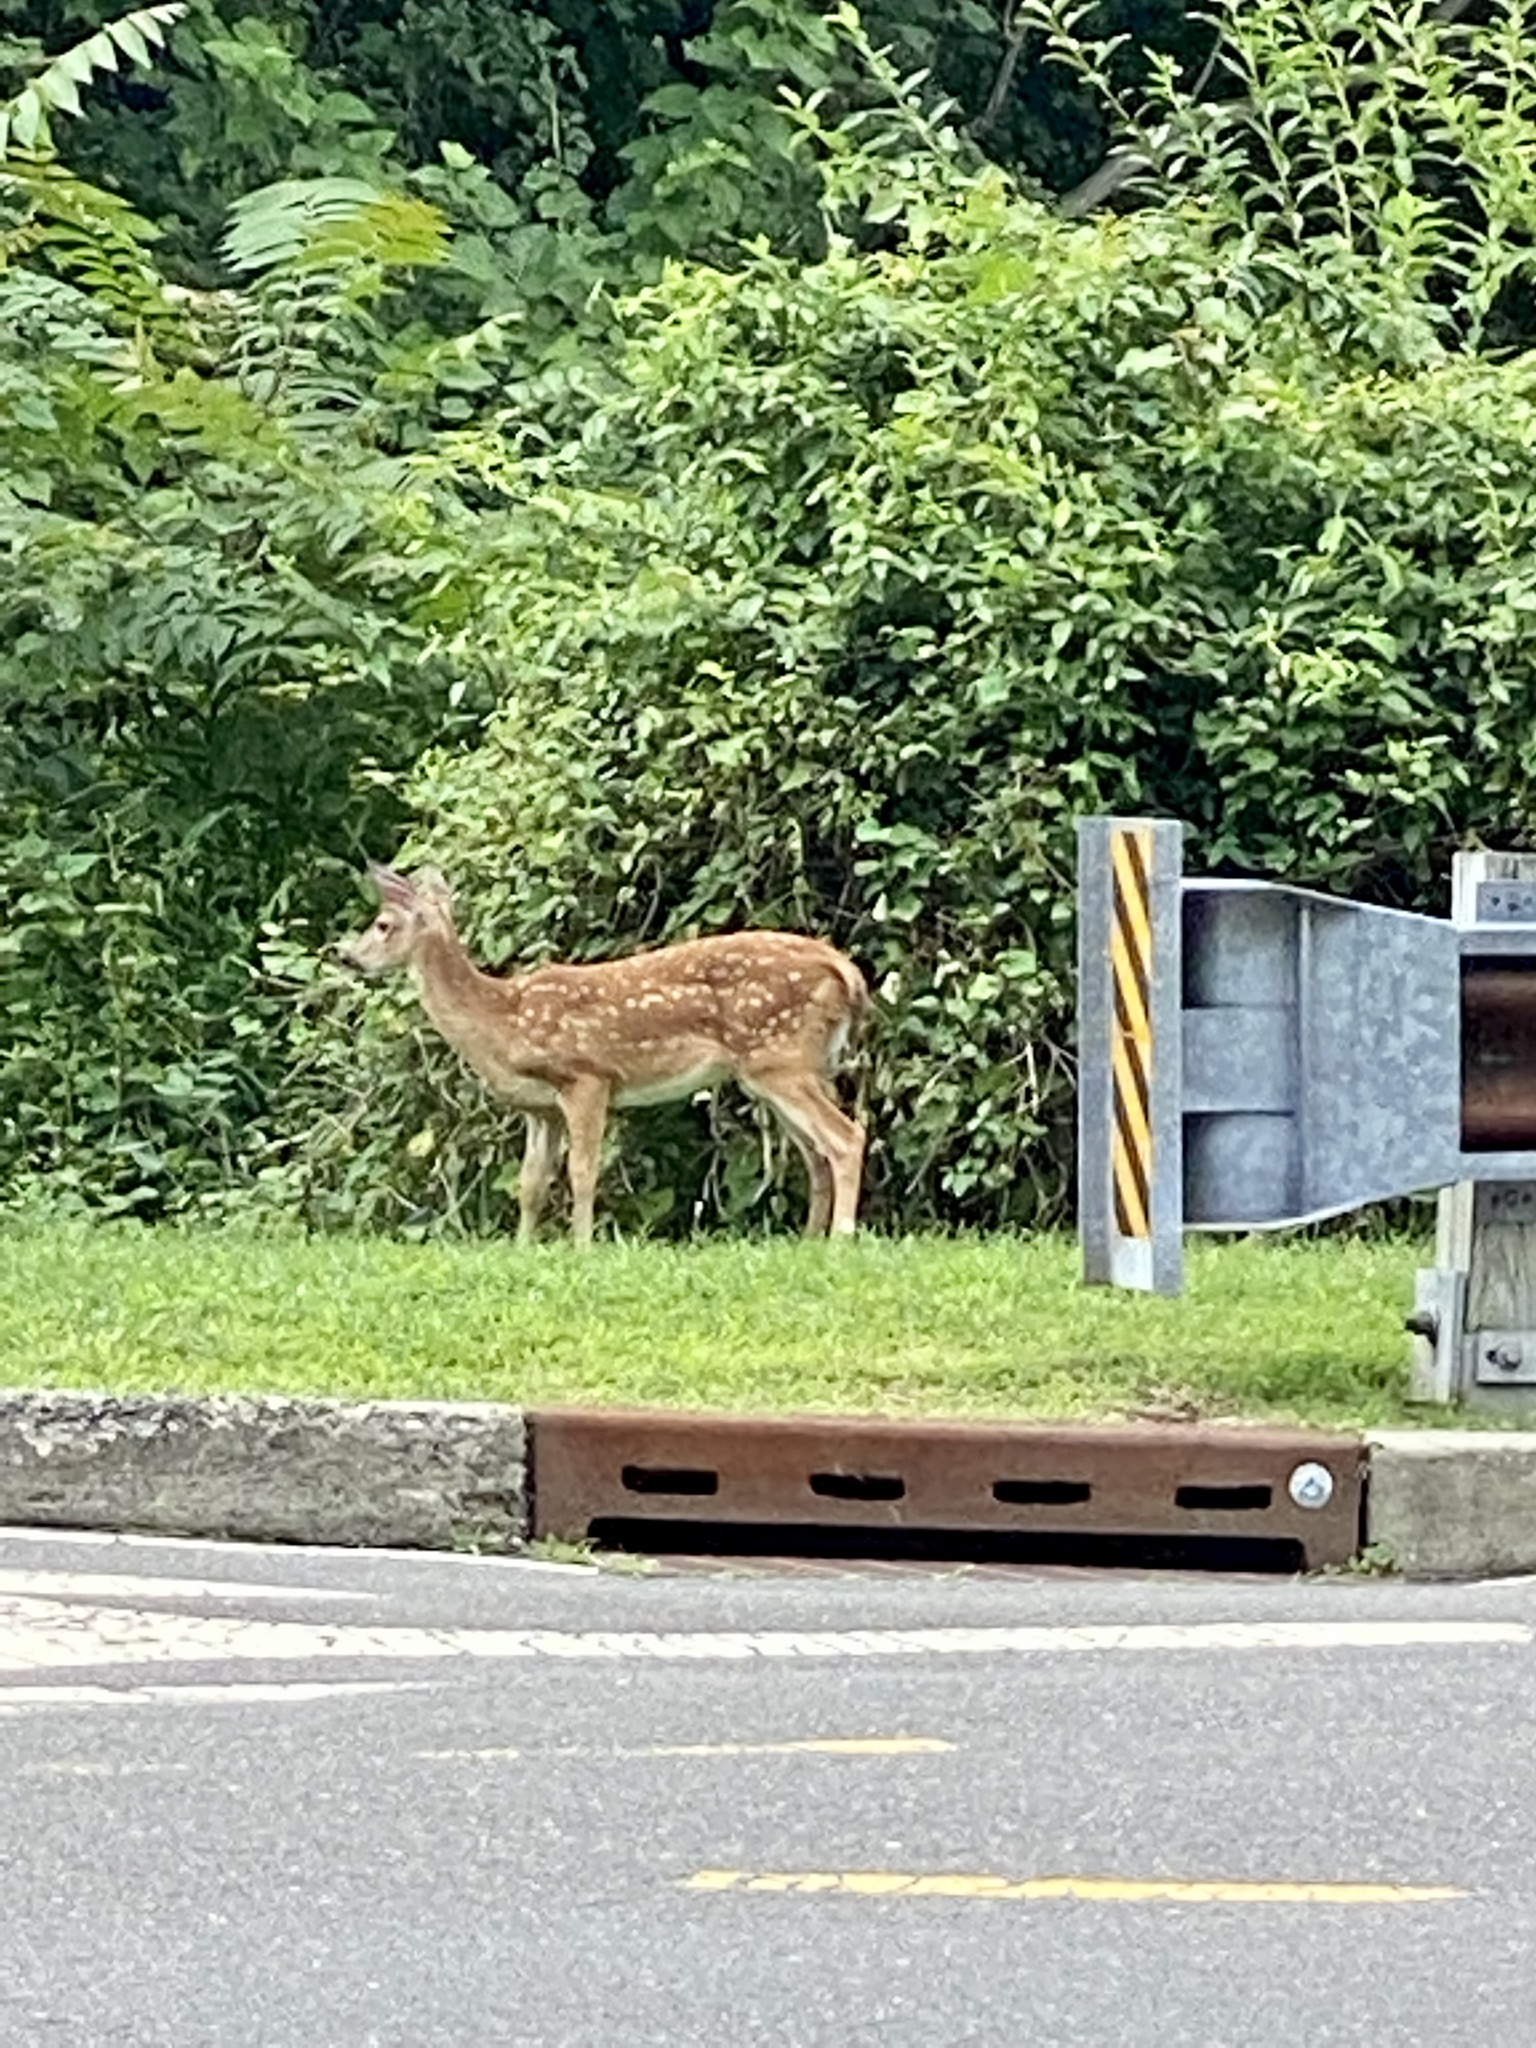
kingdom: Animalia
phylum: Chordata
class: Mammalia
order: Artiodactyla
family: Cervidae
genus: Odocoileus
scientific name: Odocoileus virginianus
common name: White-tailed deer
